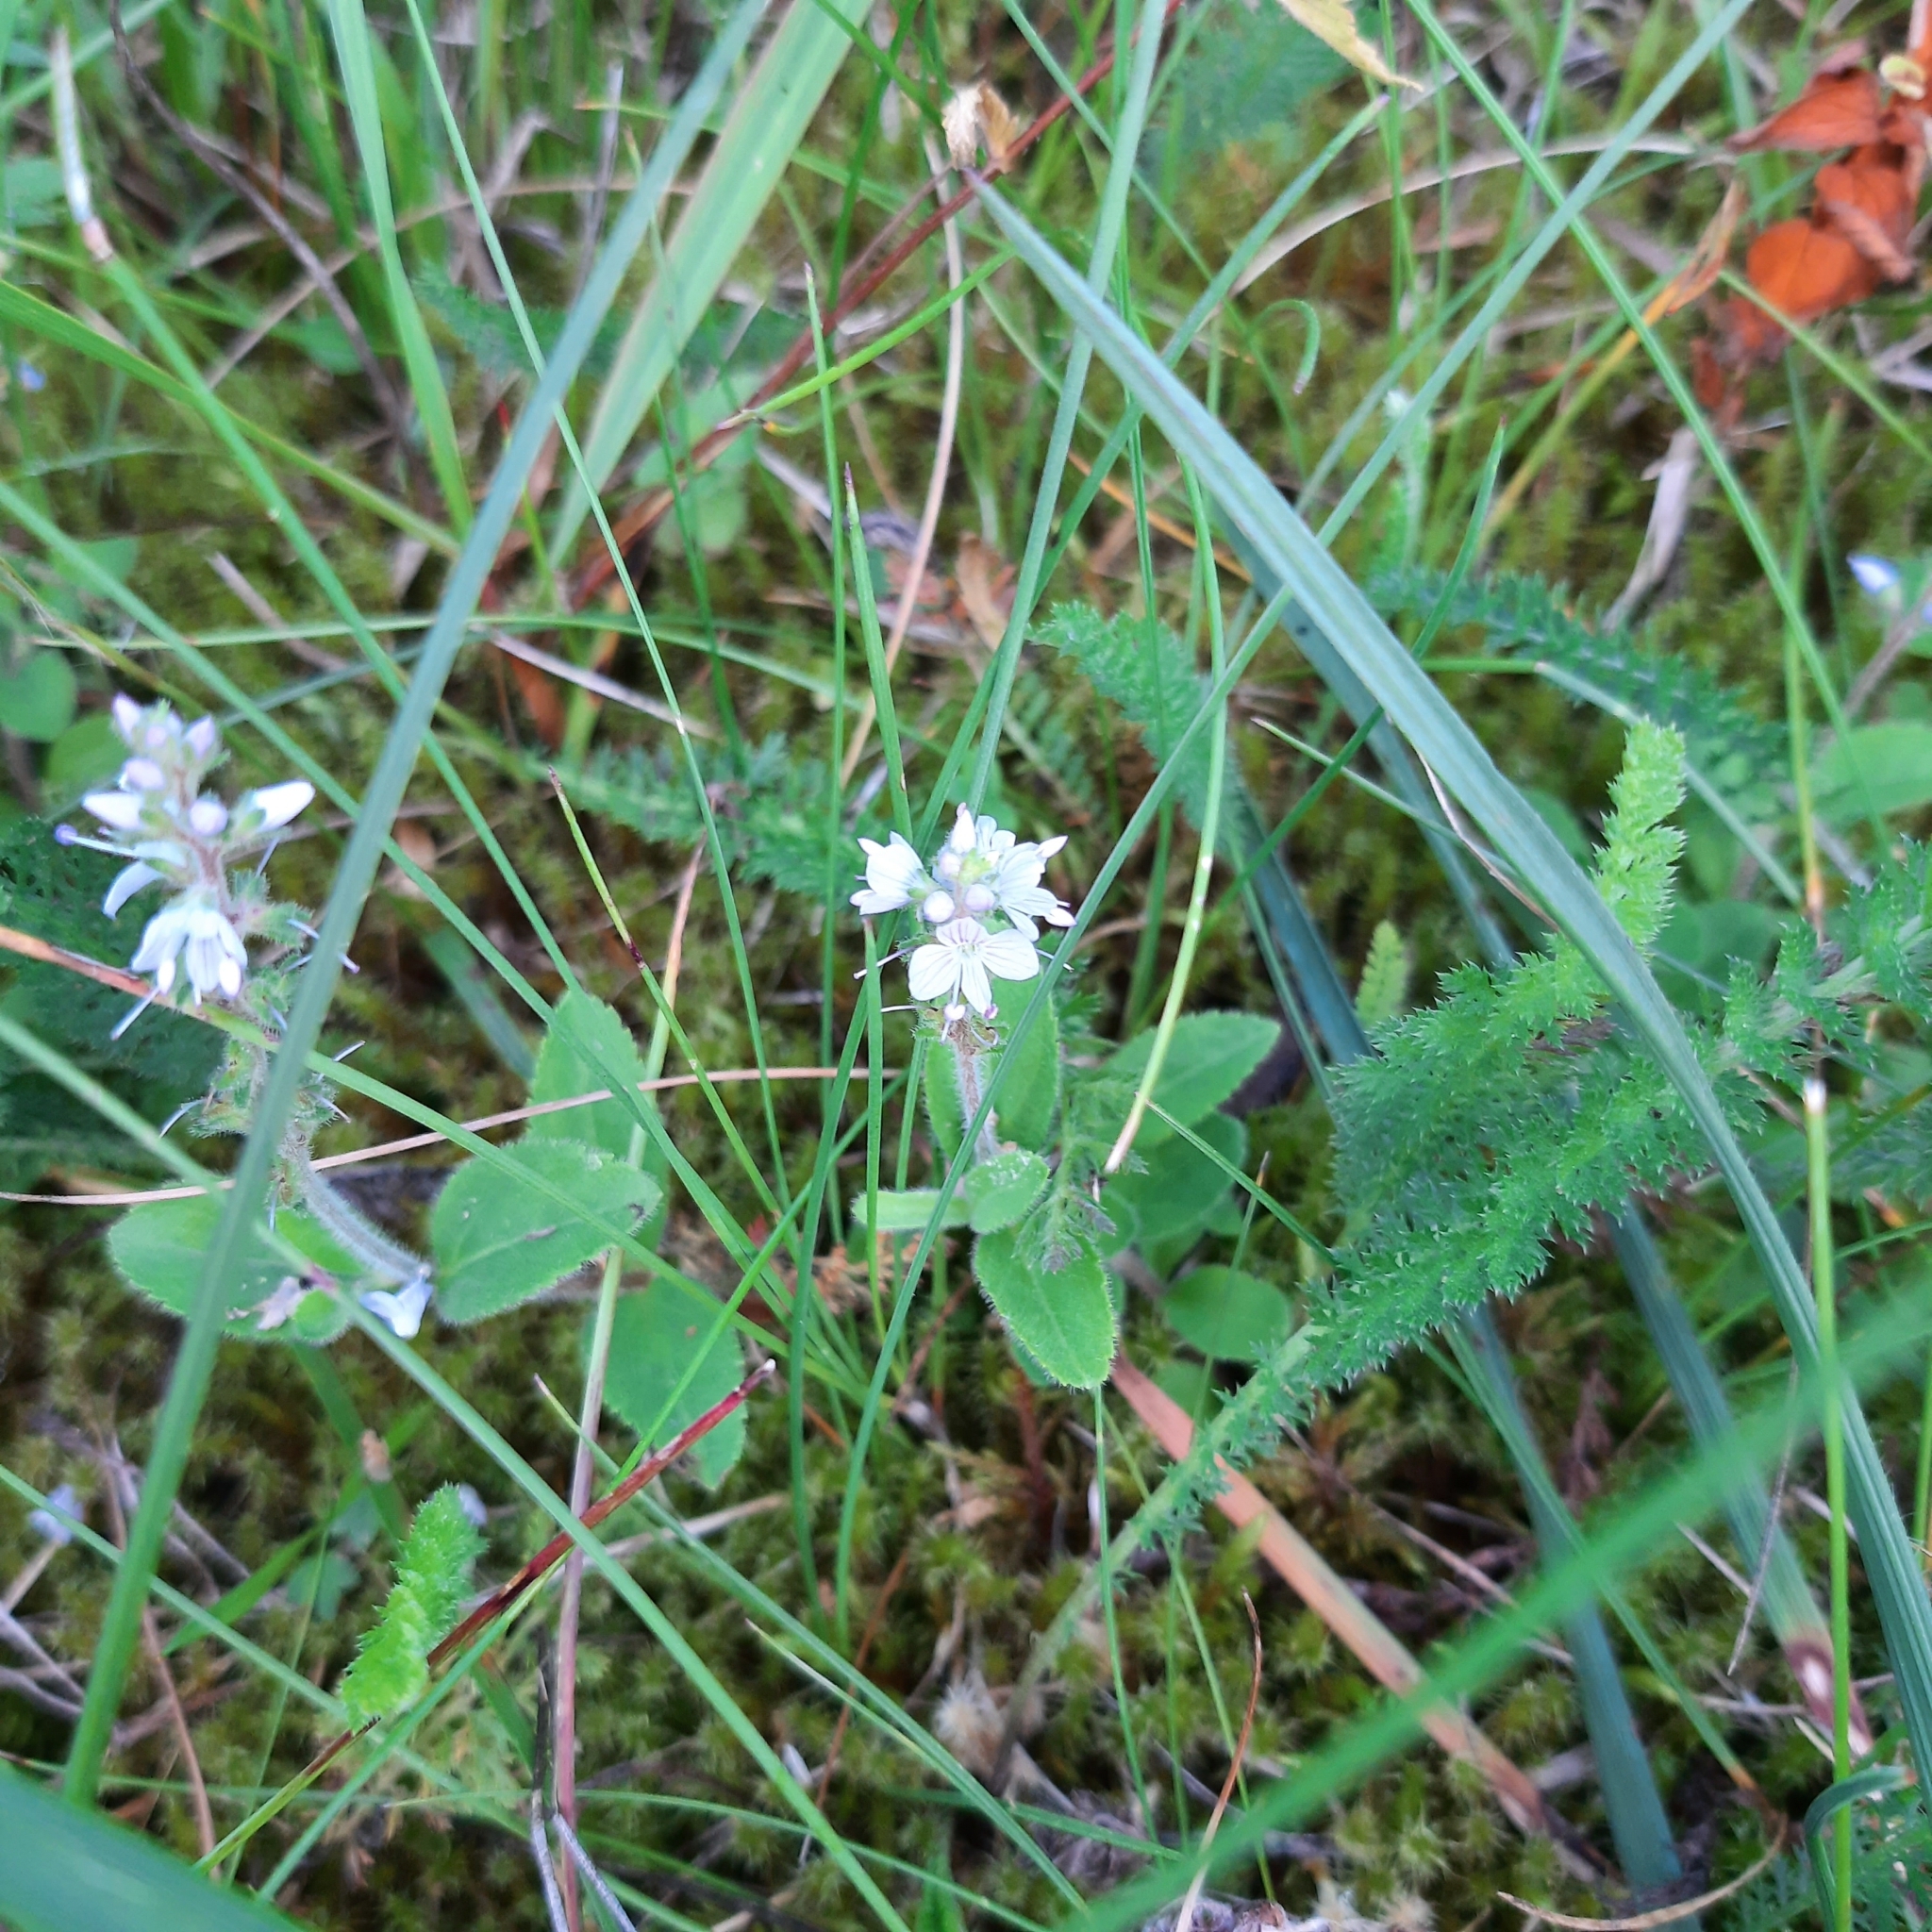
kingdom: Plantae
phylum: Tracheophyta
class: Magnoliopsida
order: Lamiales
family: Plantaginaceae
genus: Veronica
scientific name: Veronica officinalis
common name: Common speedwell
